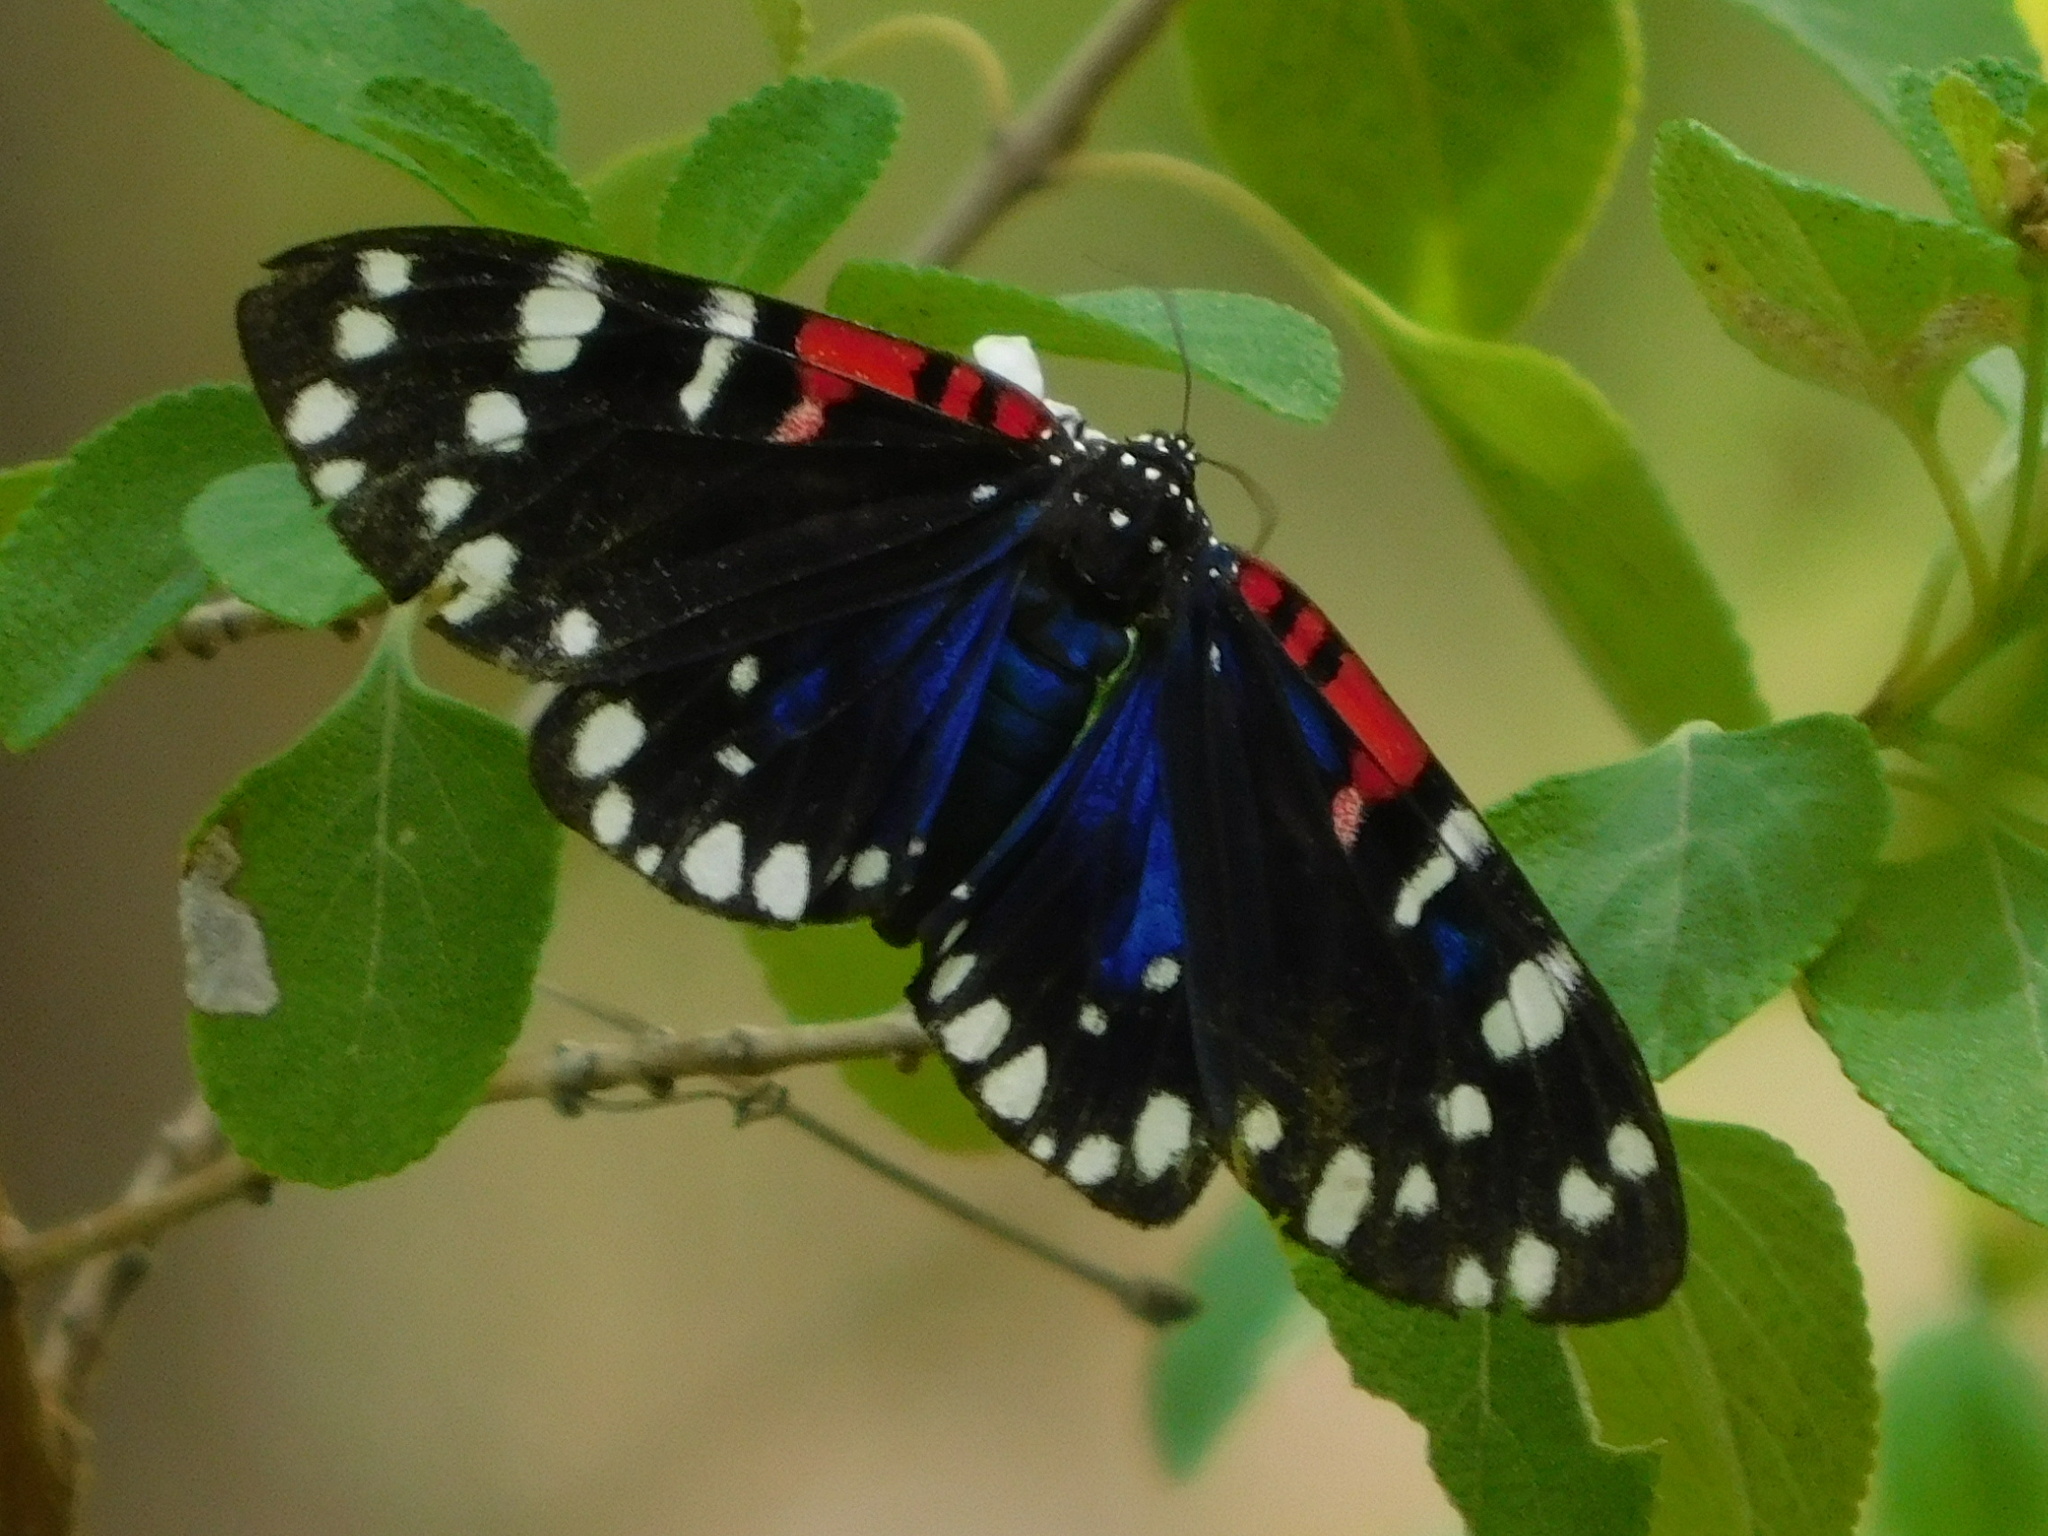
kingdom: Animalia
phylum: Arthropoda
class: Insecta
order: Lepidoptera
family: Erebidae
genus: Composia
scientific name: Composia fidelissima
